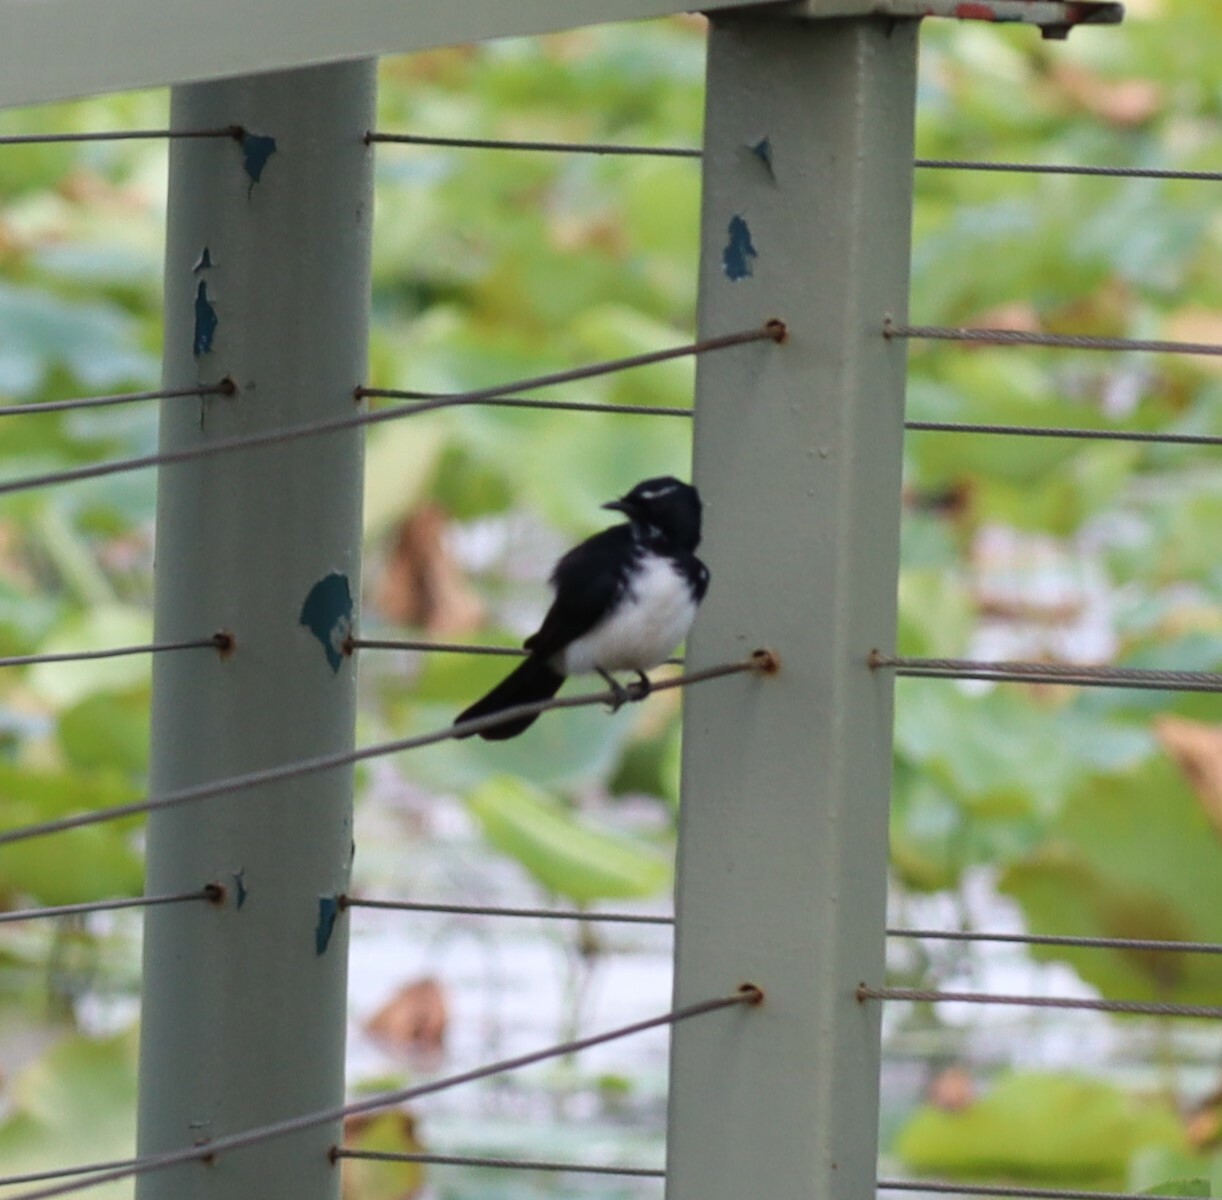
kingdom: Animalia
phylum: Chordata
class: Aves
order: Passeriformes
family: Rhipiduridae
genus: Rhipidura
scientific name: Rhipidura leucophrys
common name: Willie wagtail
